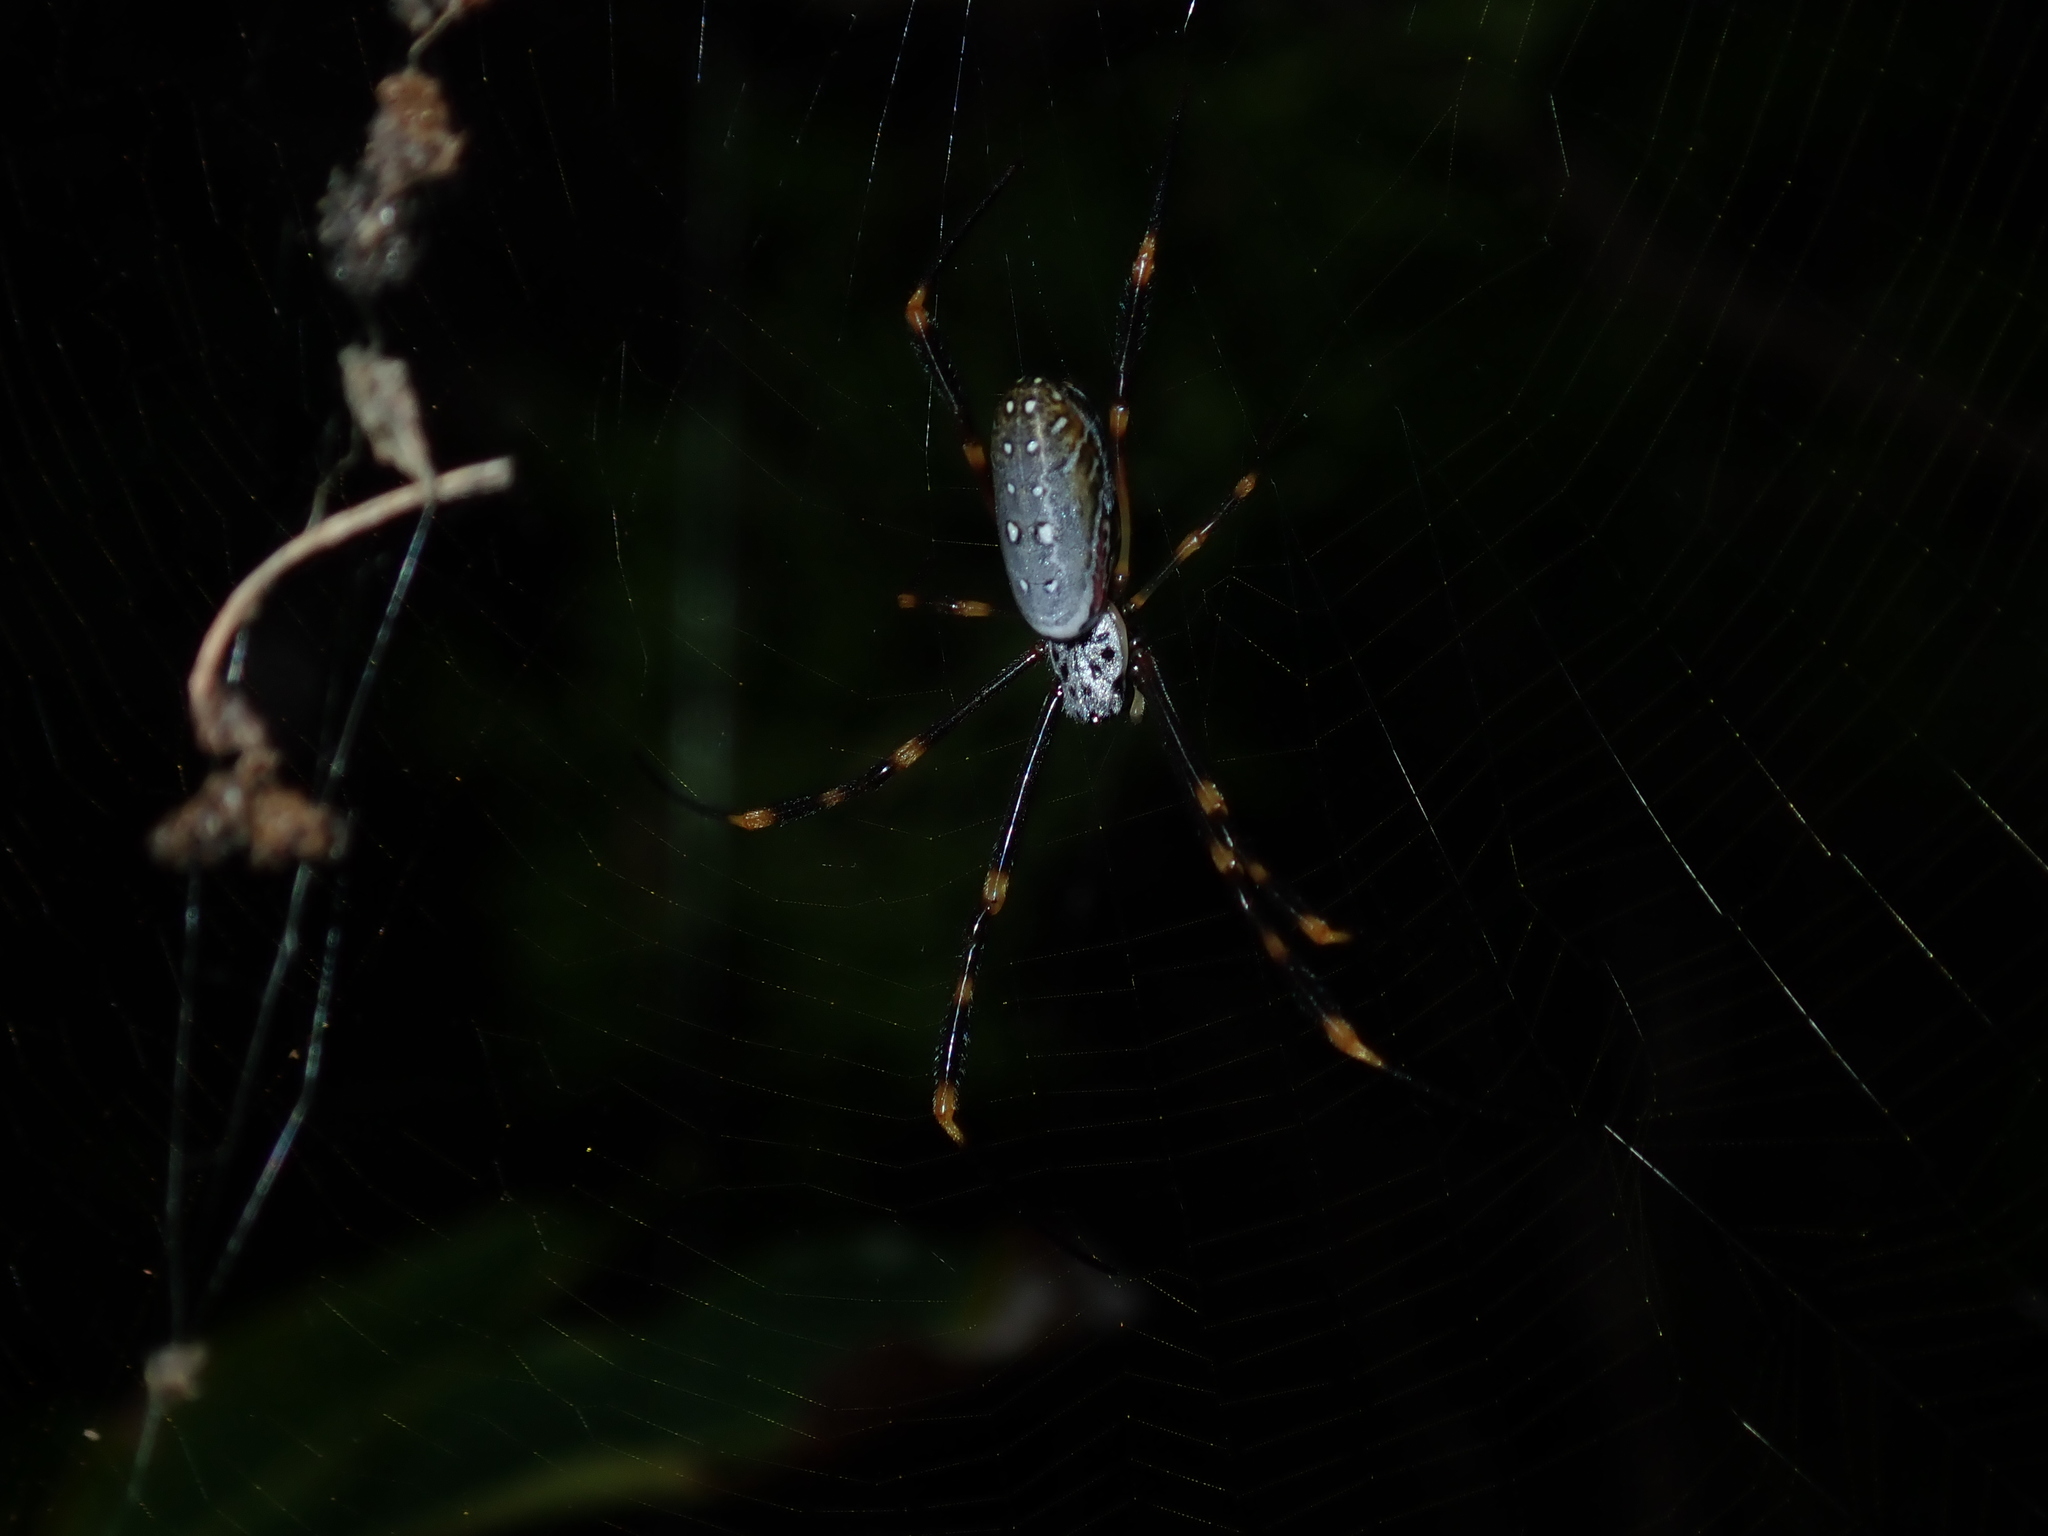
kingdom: Animalia
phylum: Arthropoda
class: Arachnida
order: Araneae
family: Araneidae
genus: Trichonephila
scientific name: Trichonephila plumipes
